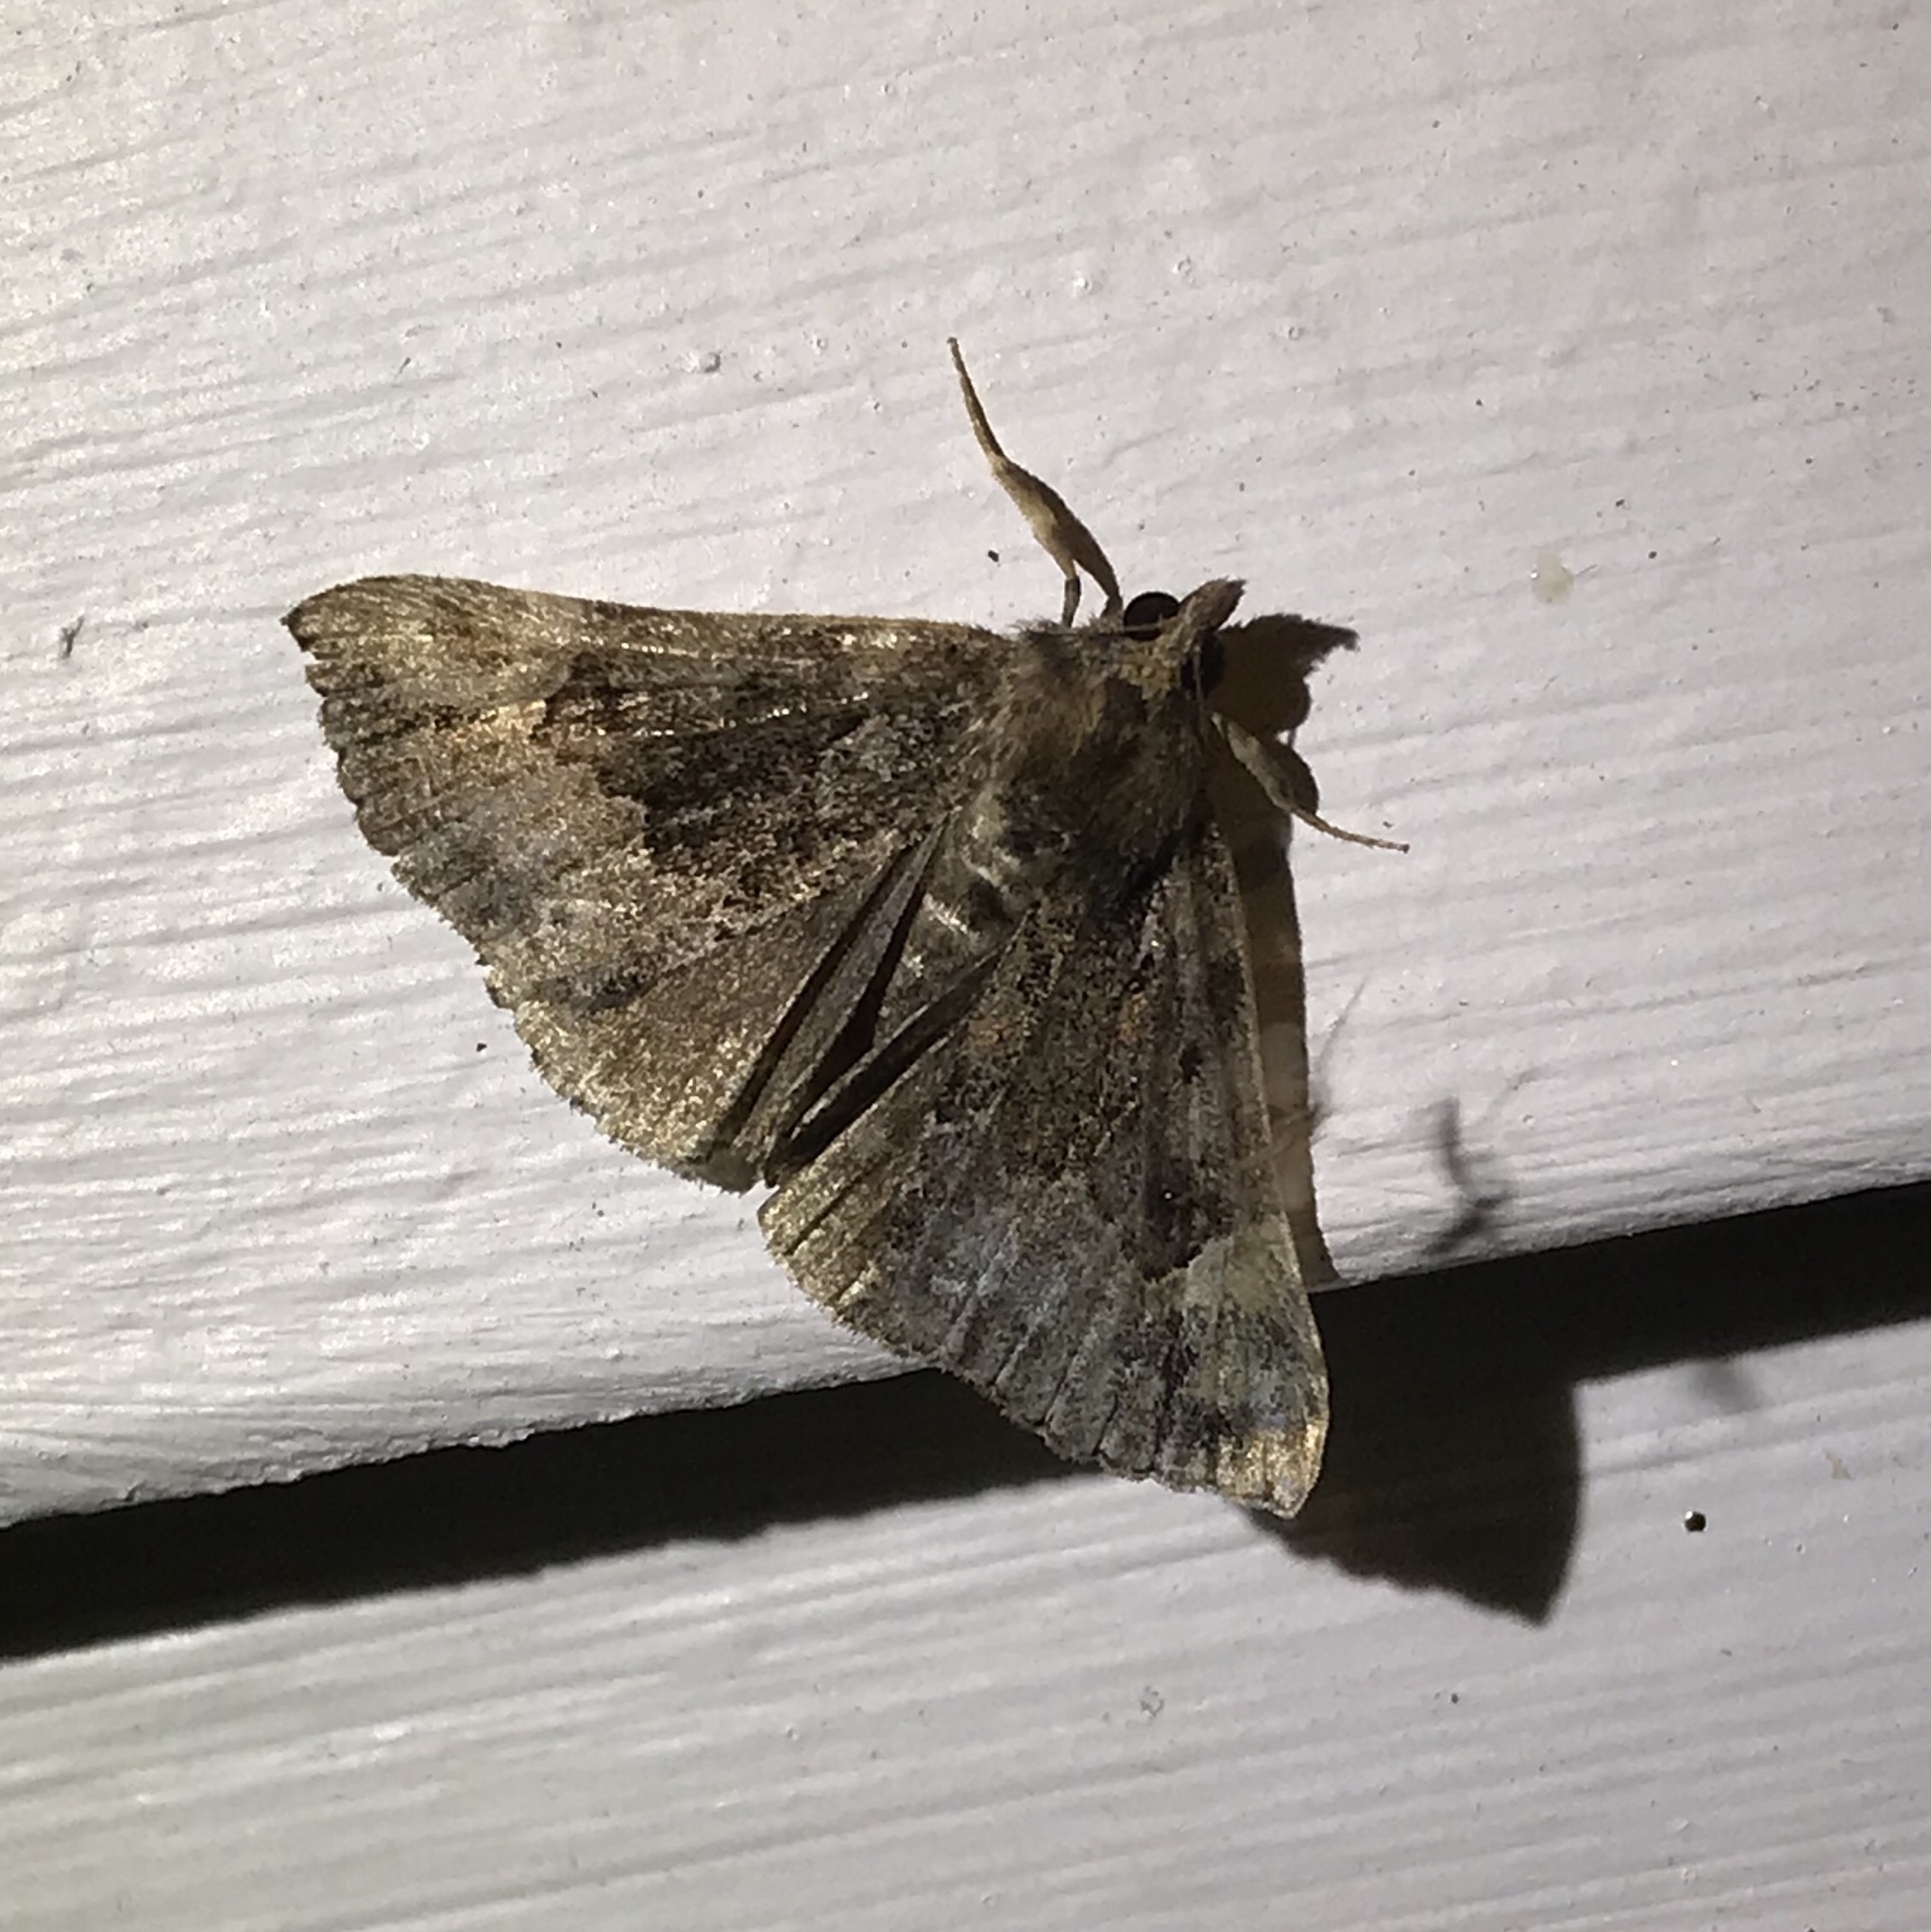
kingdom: Animalia
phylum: Arthropoda
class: Insecta
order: Lepidoptera
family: Erebidae
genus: Hypena
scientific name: Hypena madefactalis
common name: Gray-edged snout
